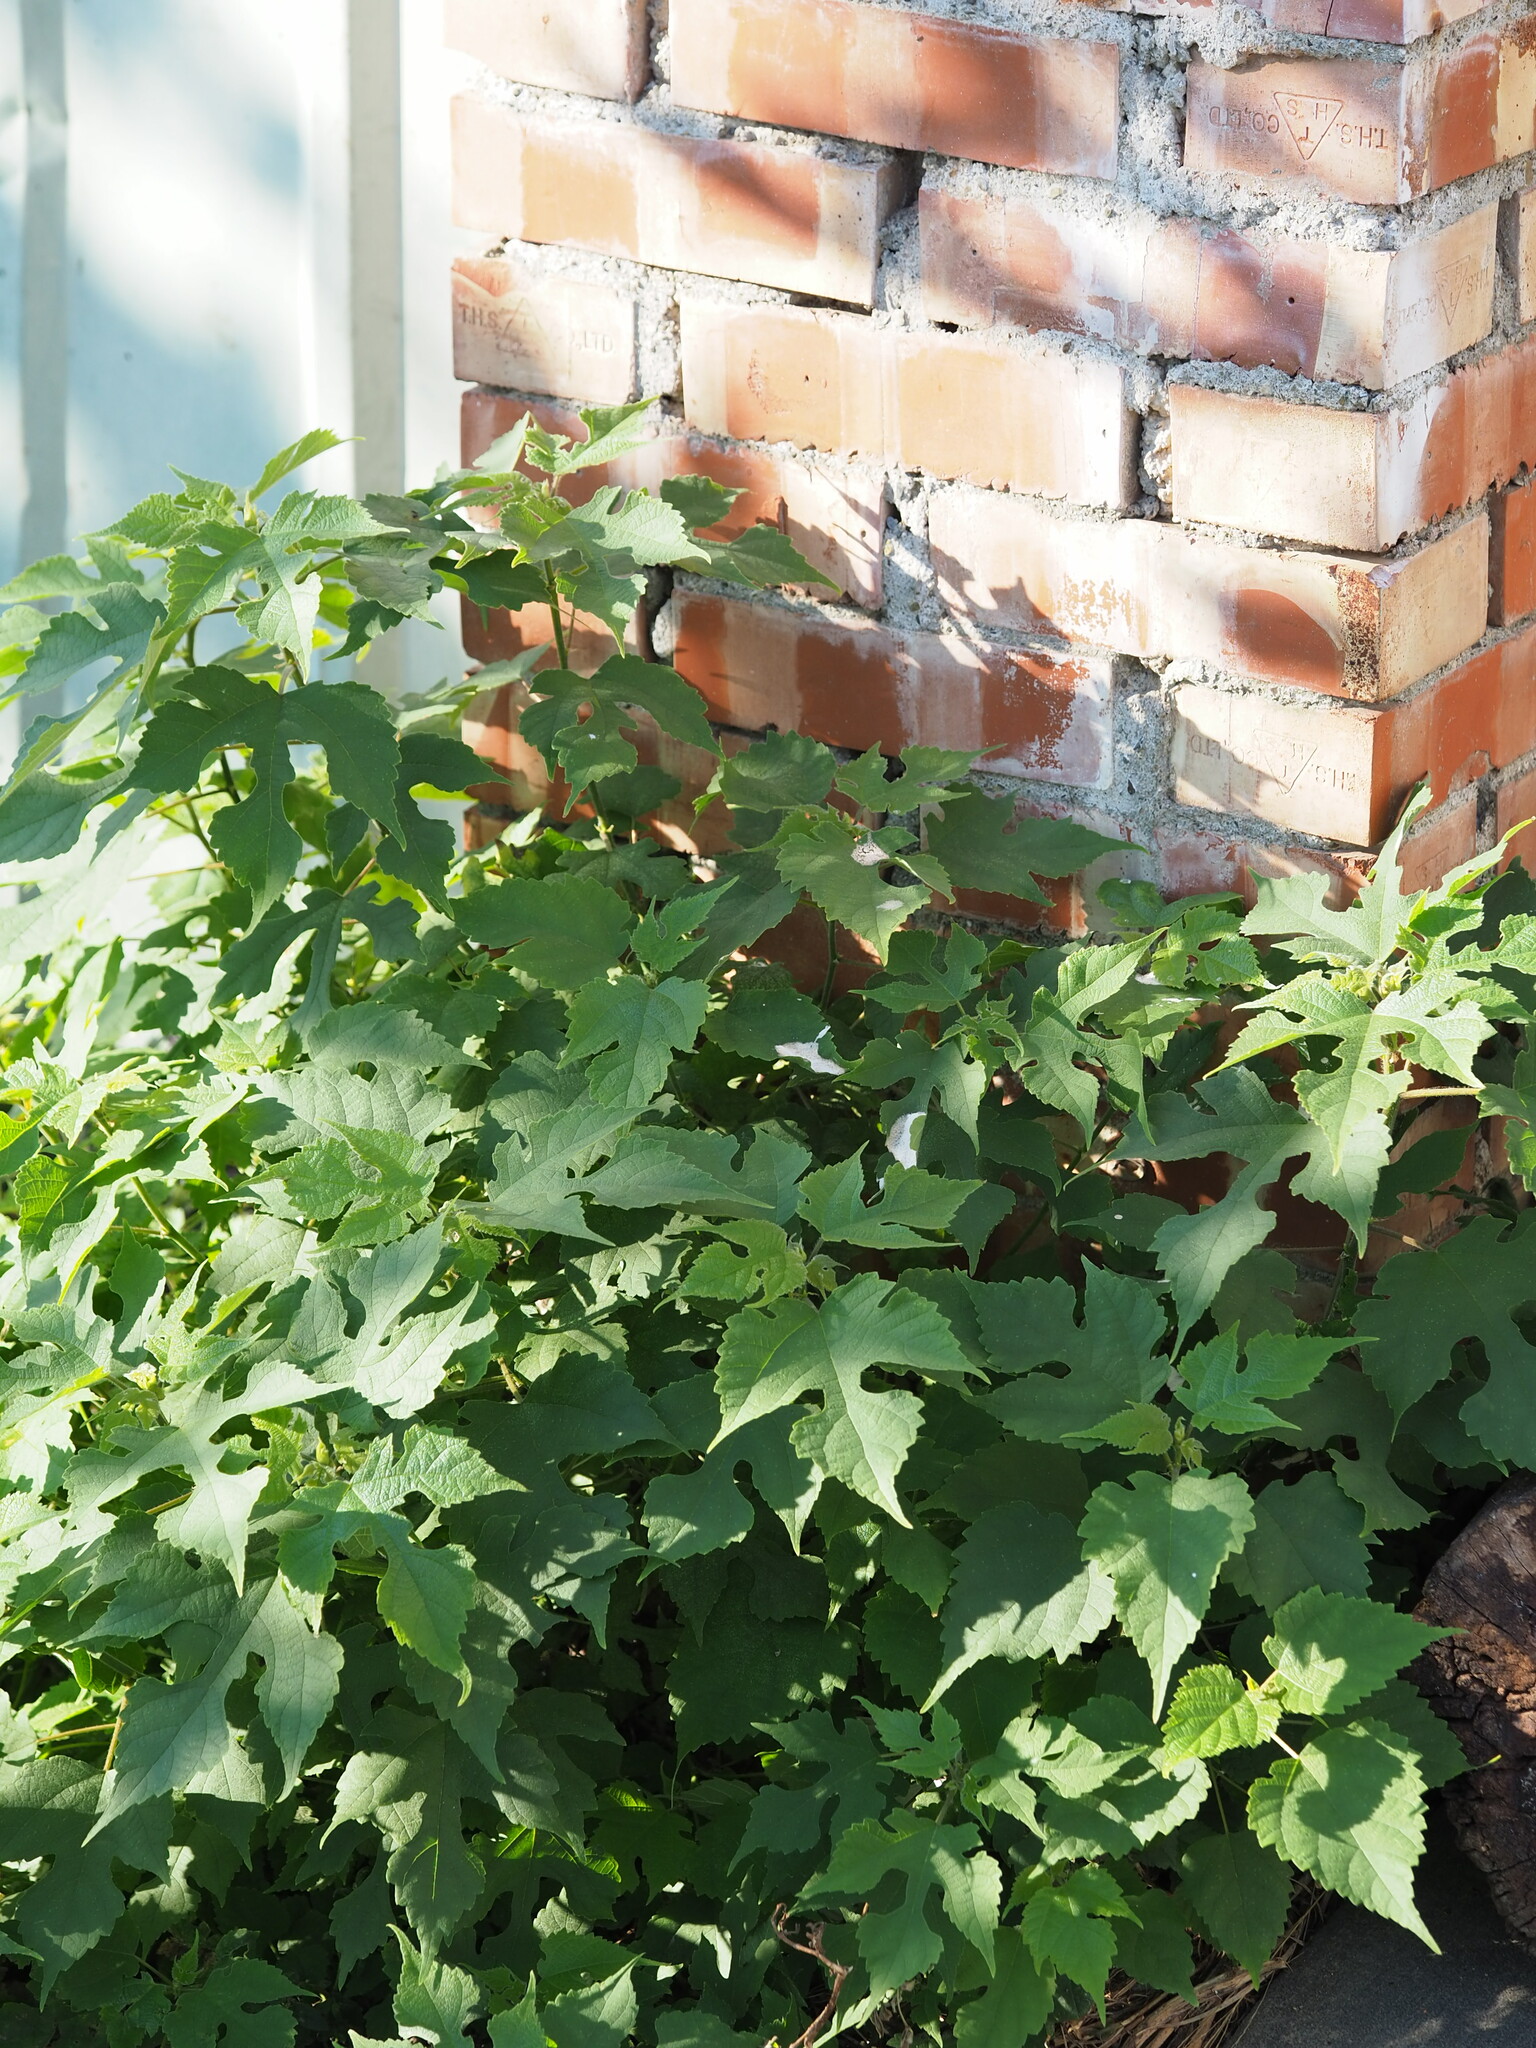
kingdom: Plantae
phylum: Tracheophyta
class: Magnoliopsida
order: Rosales
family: Moraceae
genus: Broussonetia
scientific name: Broussonetia papyrifera
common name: Paper mulberry
